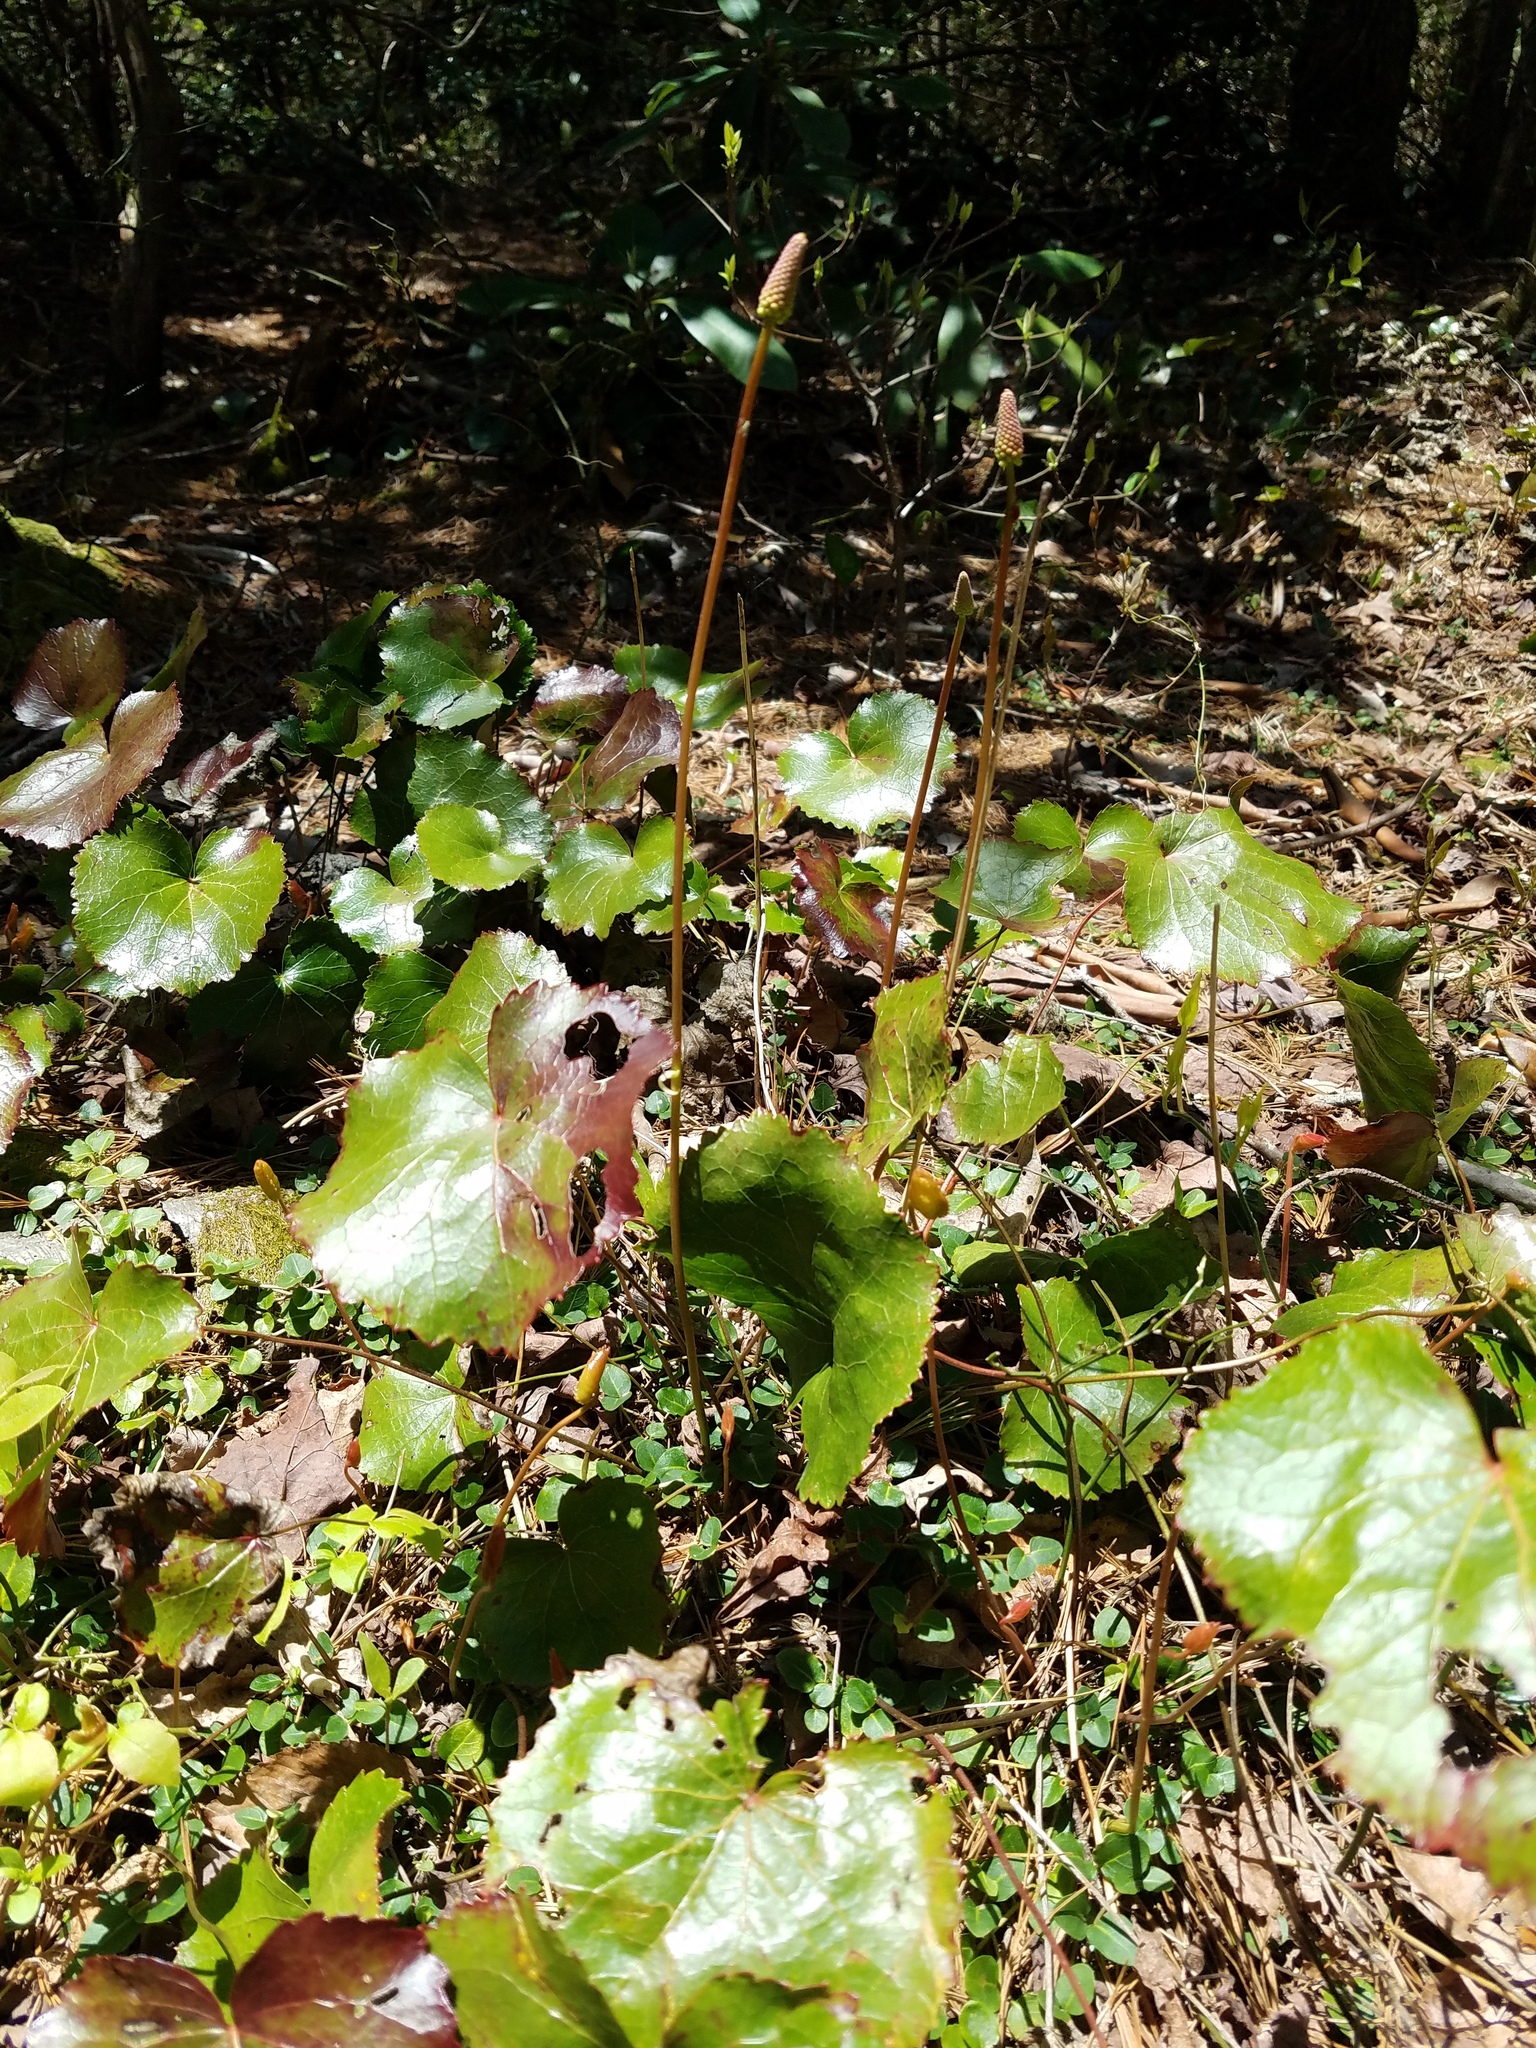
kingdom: Plantae
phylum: Tracheophyta
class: Magnoliopsida
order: Ericales
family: Diapensiaceae
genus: Galax
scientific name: Galax urceolata
